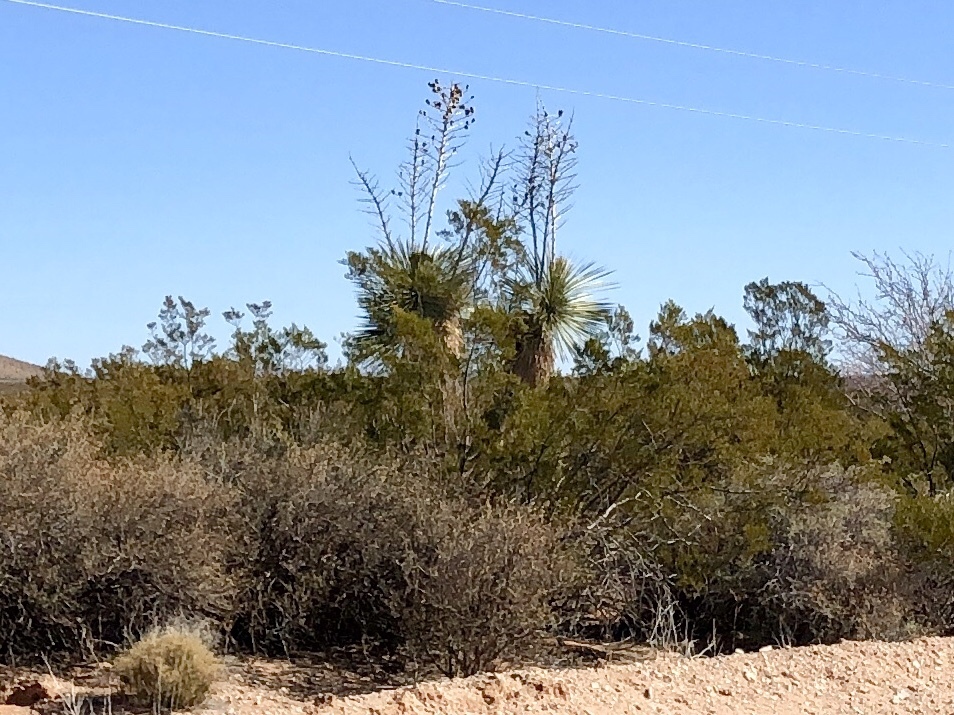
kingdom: Plantae
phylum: Tracheophyta
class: Liliopsida
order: Asparagales
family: Asparagaceae
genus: Yucca
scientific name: Yucca elata
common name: Palmella
